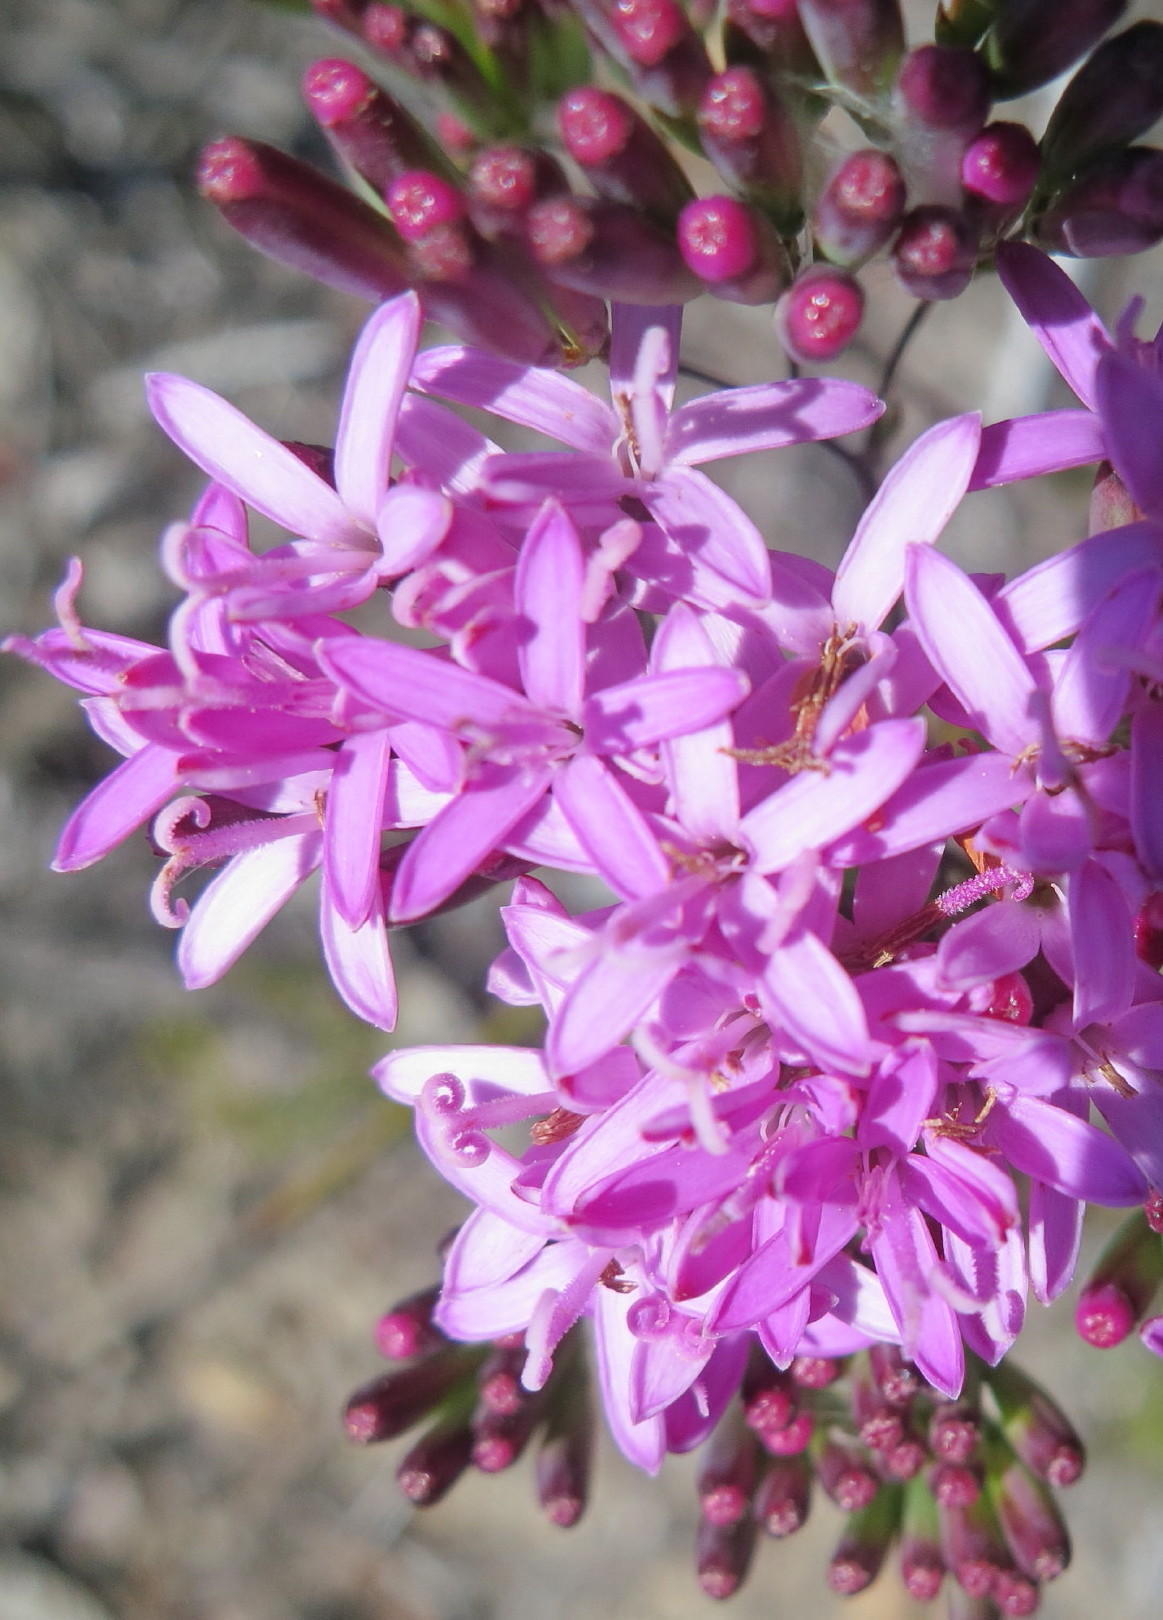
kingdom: Plantae
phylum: Tracheophyta
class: Magnoliopsida
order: Asterales
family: Asteraceae
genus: Corymbium
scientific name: Corymbium glabrum
